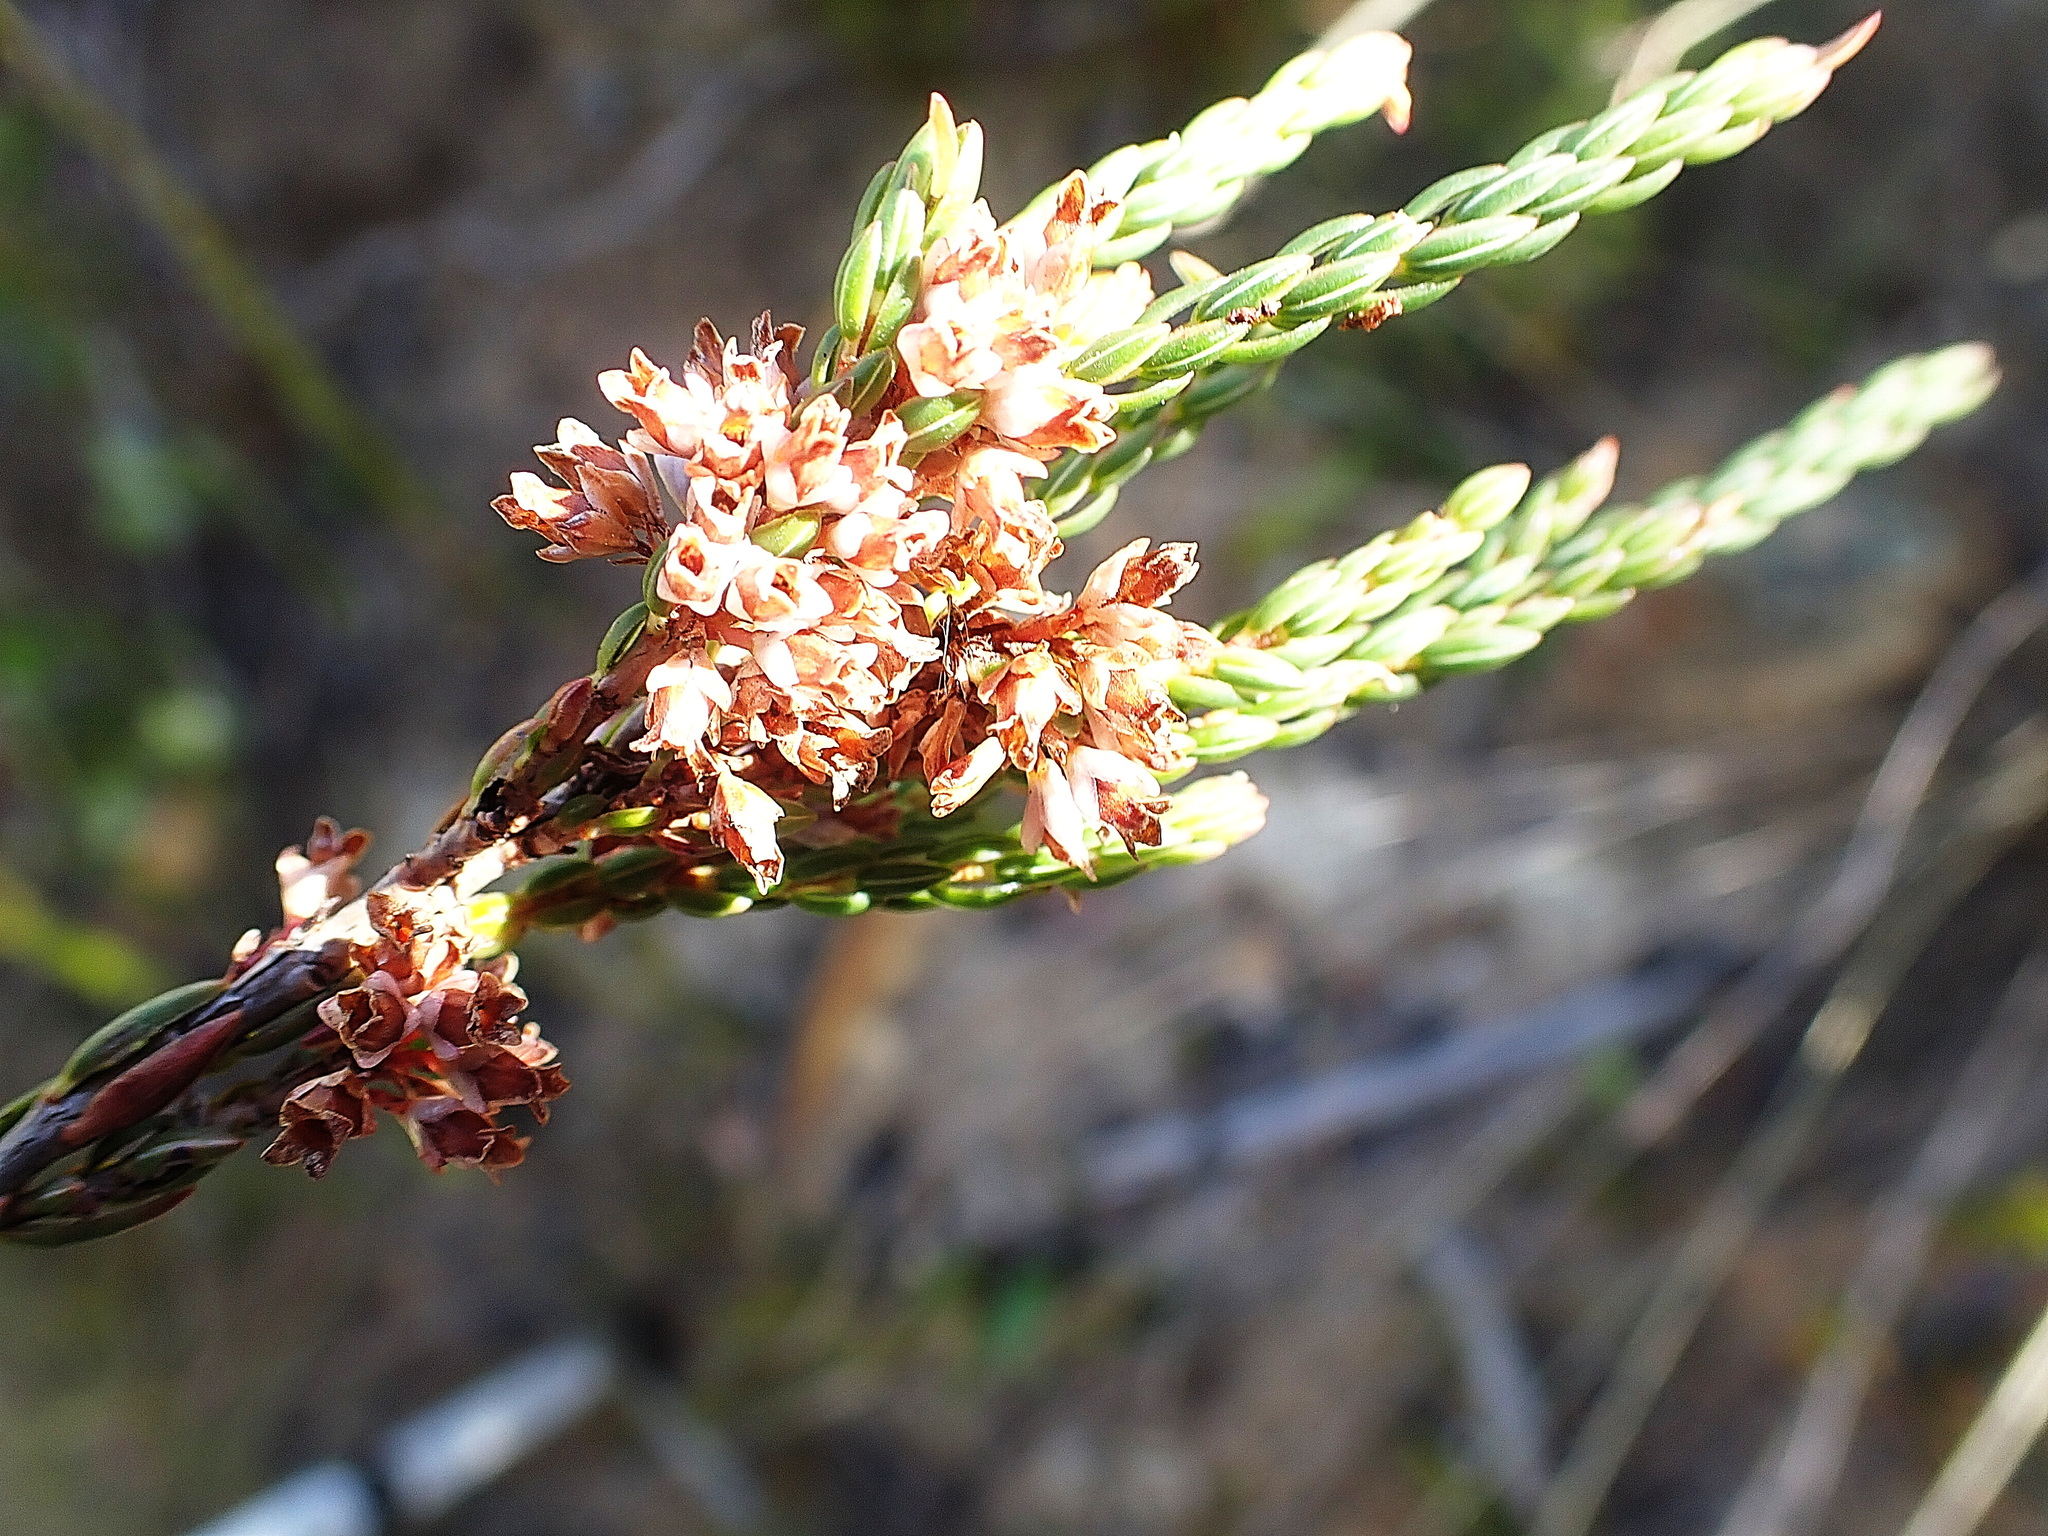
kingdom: Plantae
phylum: Tracheophyta
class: Magnoliopsida
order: Ericales
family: Ericaceae
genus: Erica
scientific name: Erica articularis
